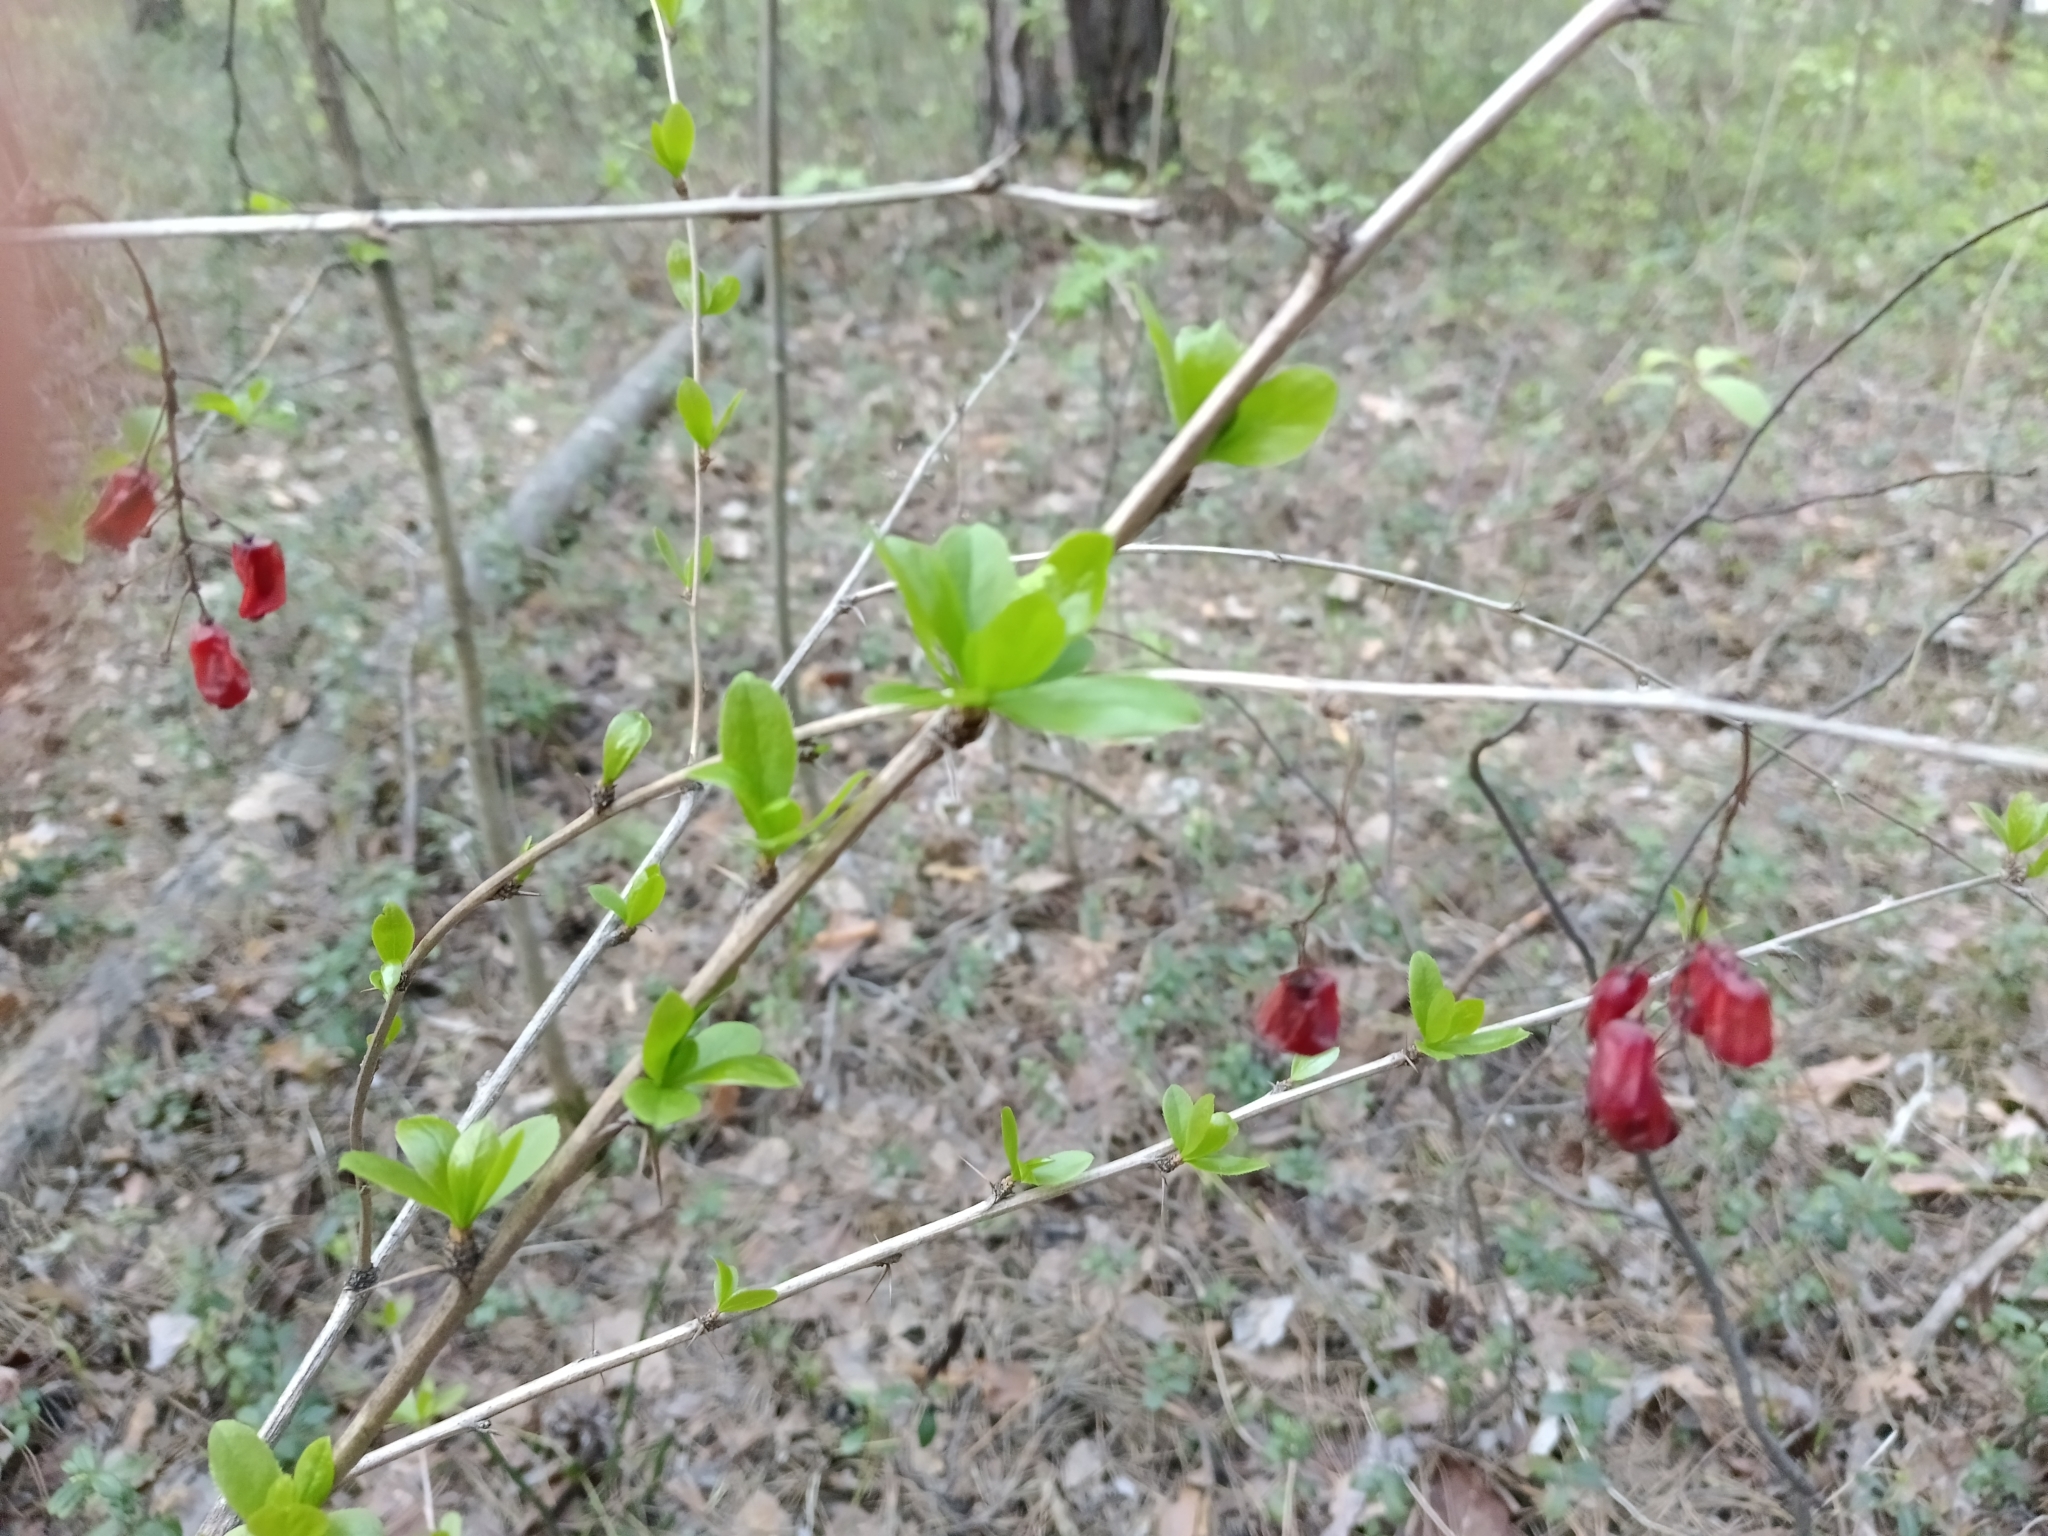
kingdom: Plantae
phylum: Tracheophyta
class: Magnoliopsida
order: Ranunculales
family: Berberidaceae
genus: Berberis
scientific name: Berberis vulgaris
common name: Barberry
